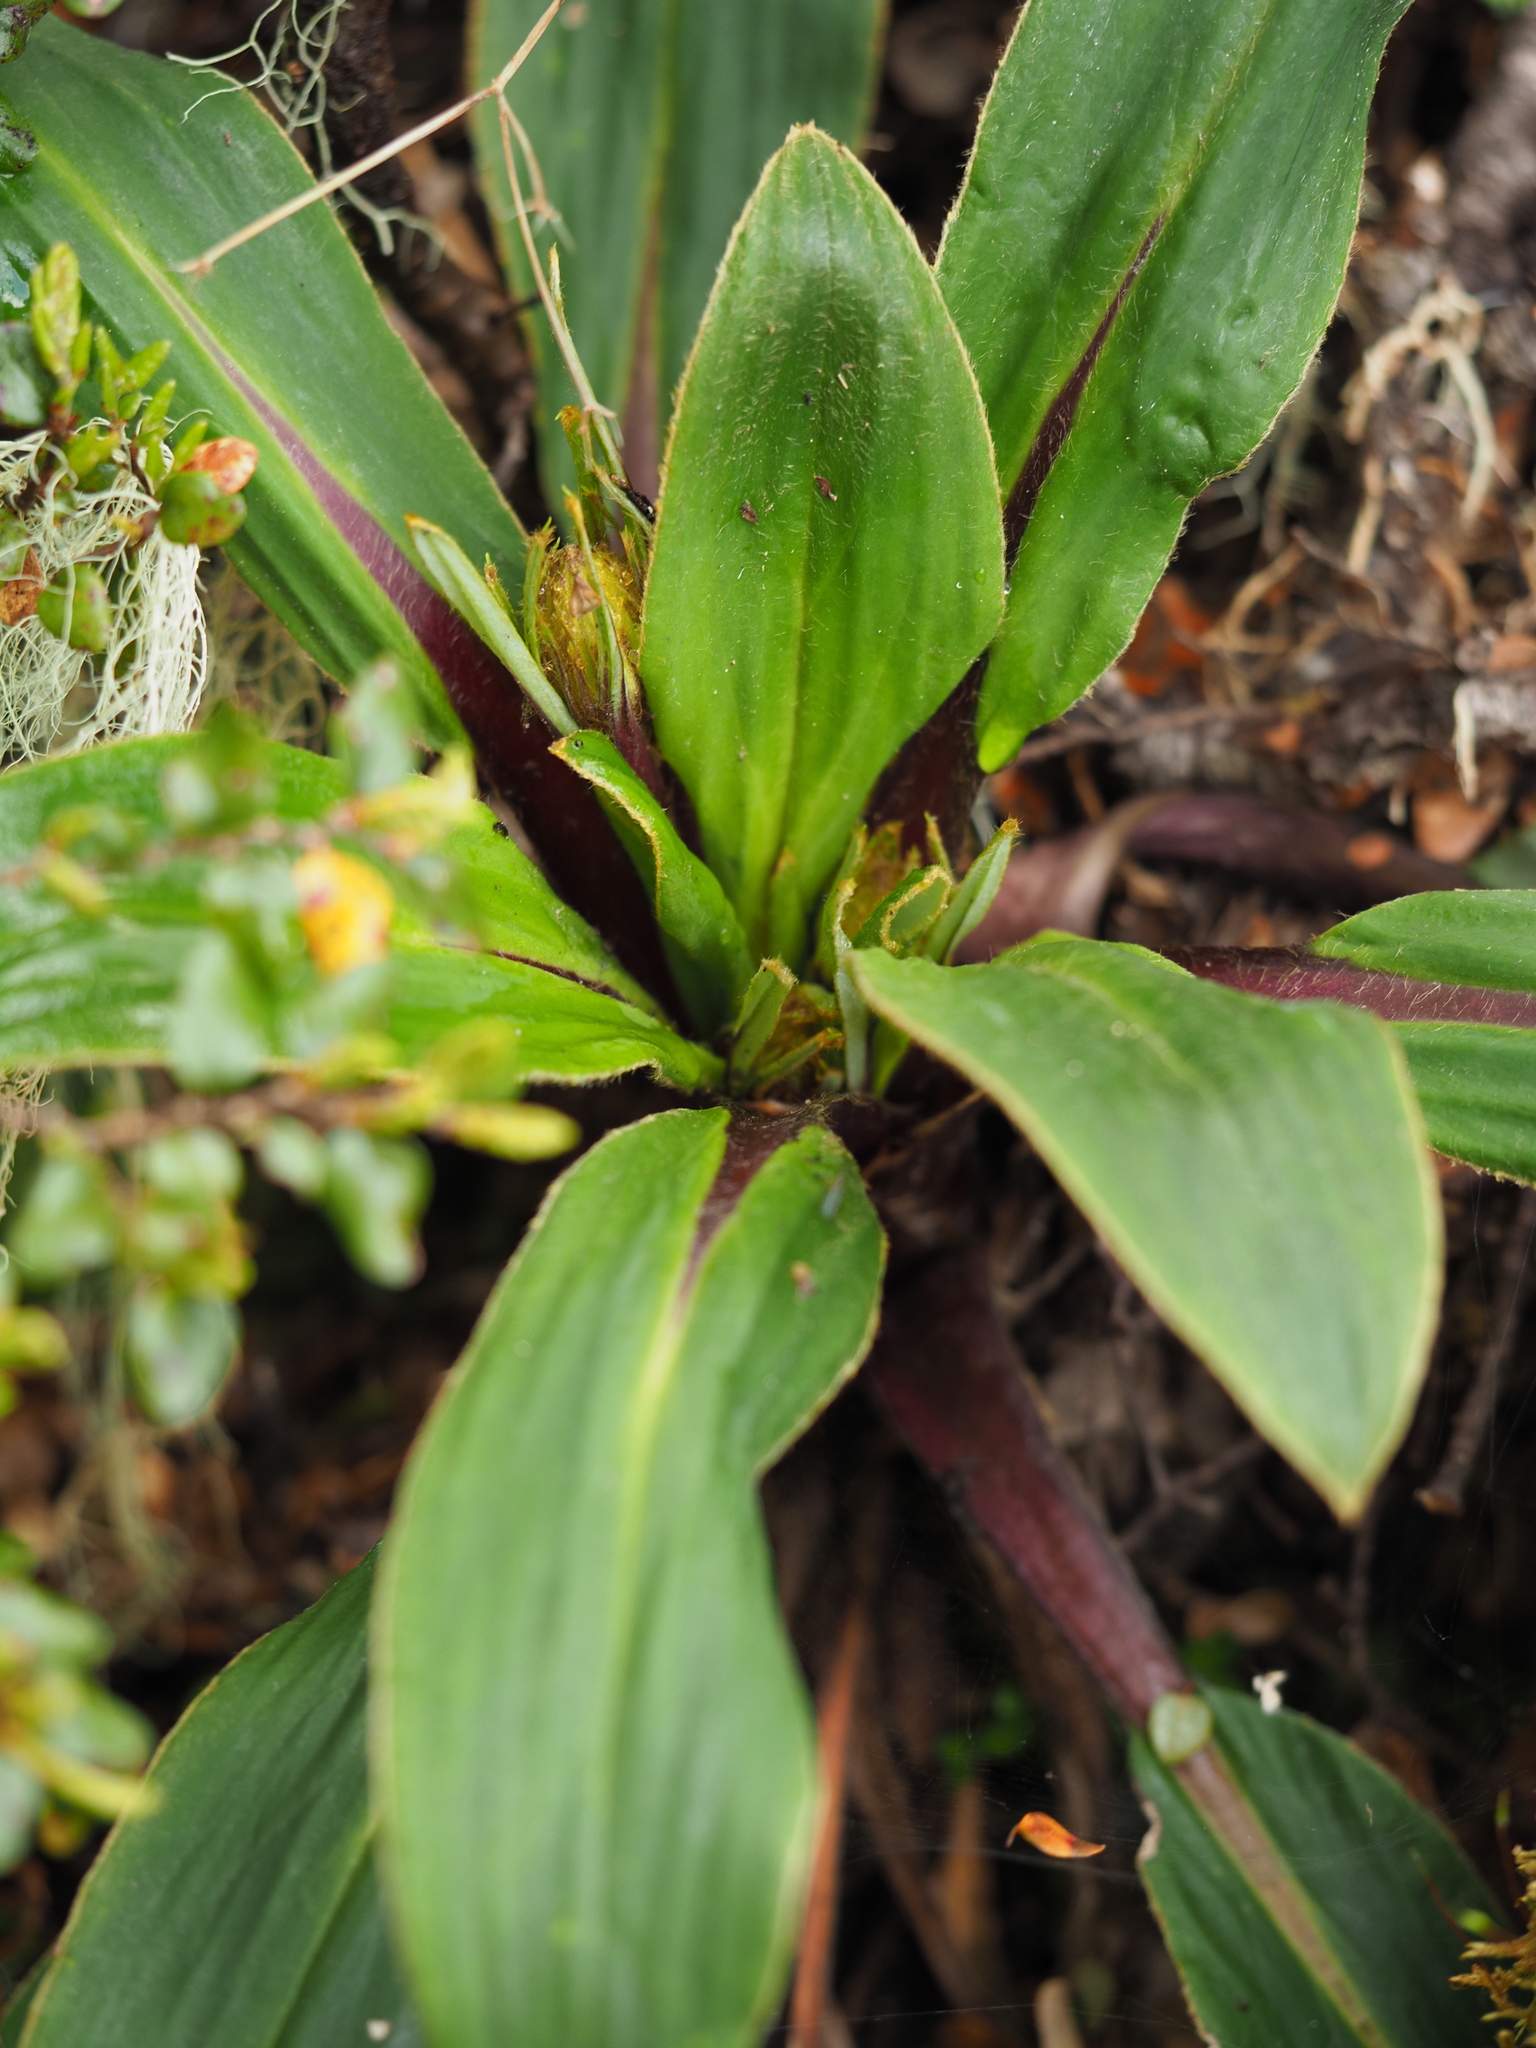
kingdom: Plantae
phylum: Tracheophyta
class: Magnoliopsida
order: Asterales
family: Asteraceae
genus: Celmisia
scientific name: Celmisia verbascifolia
